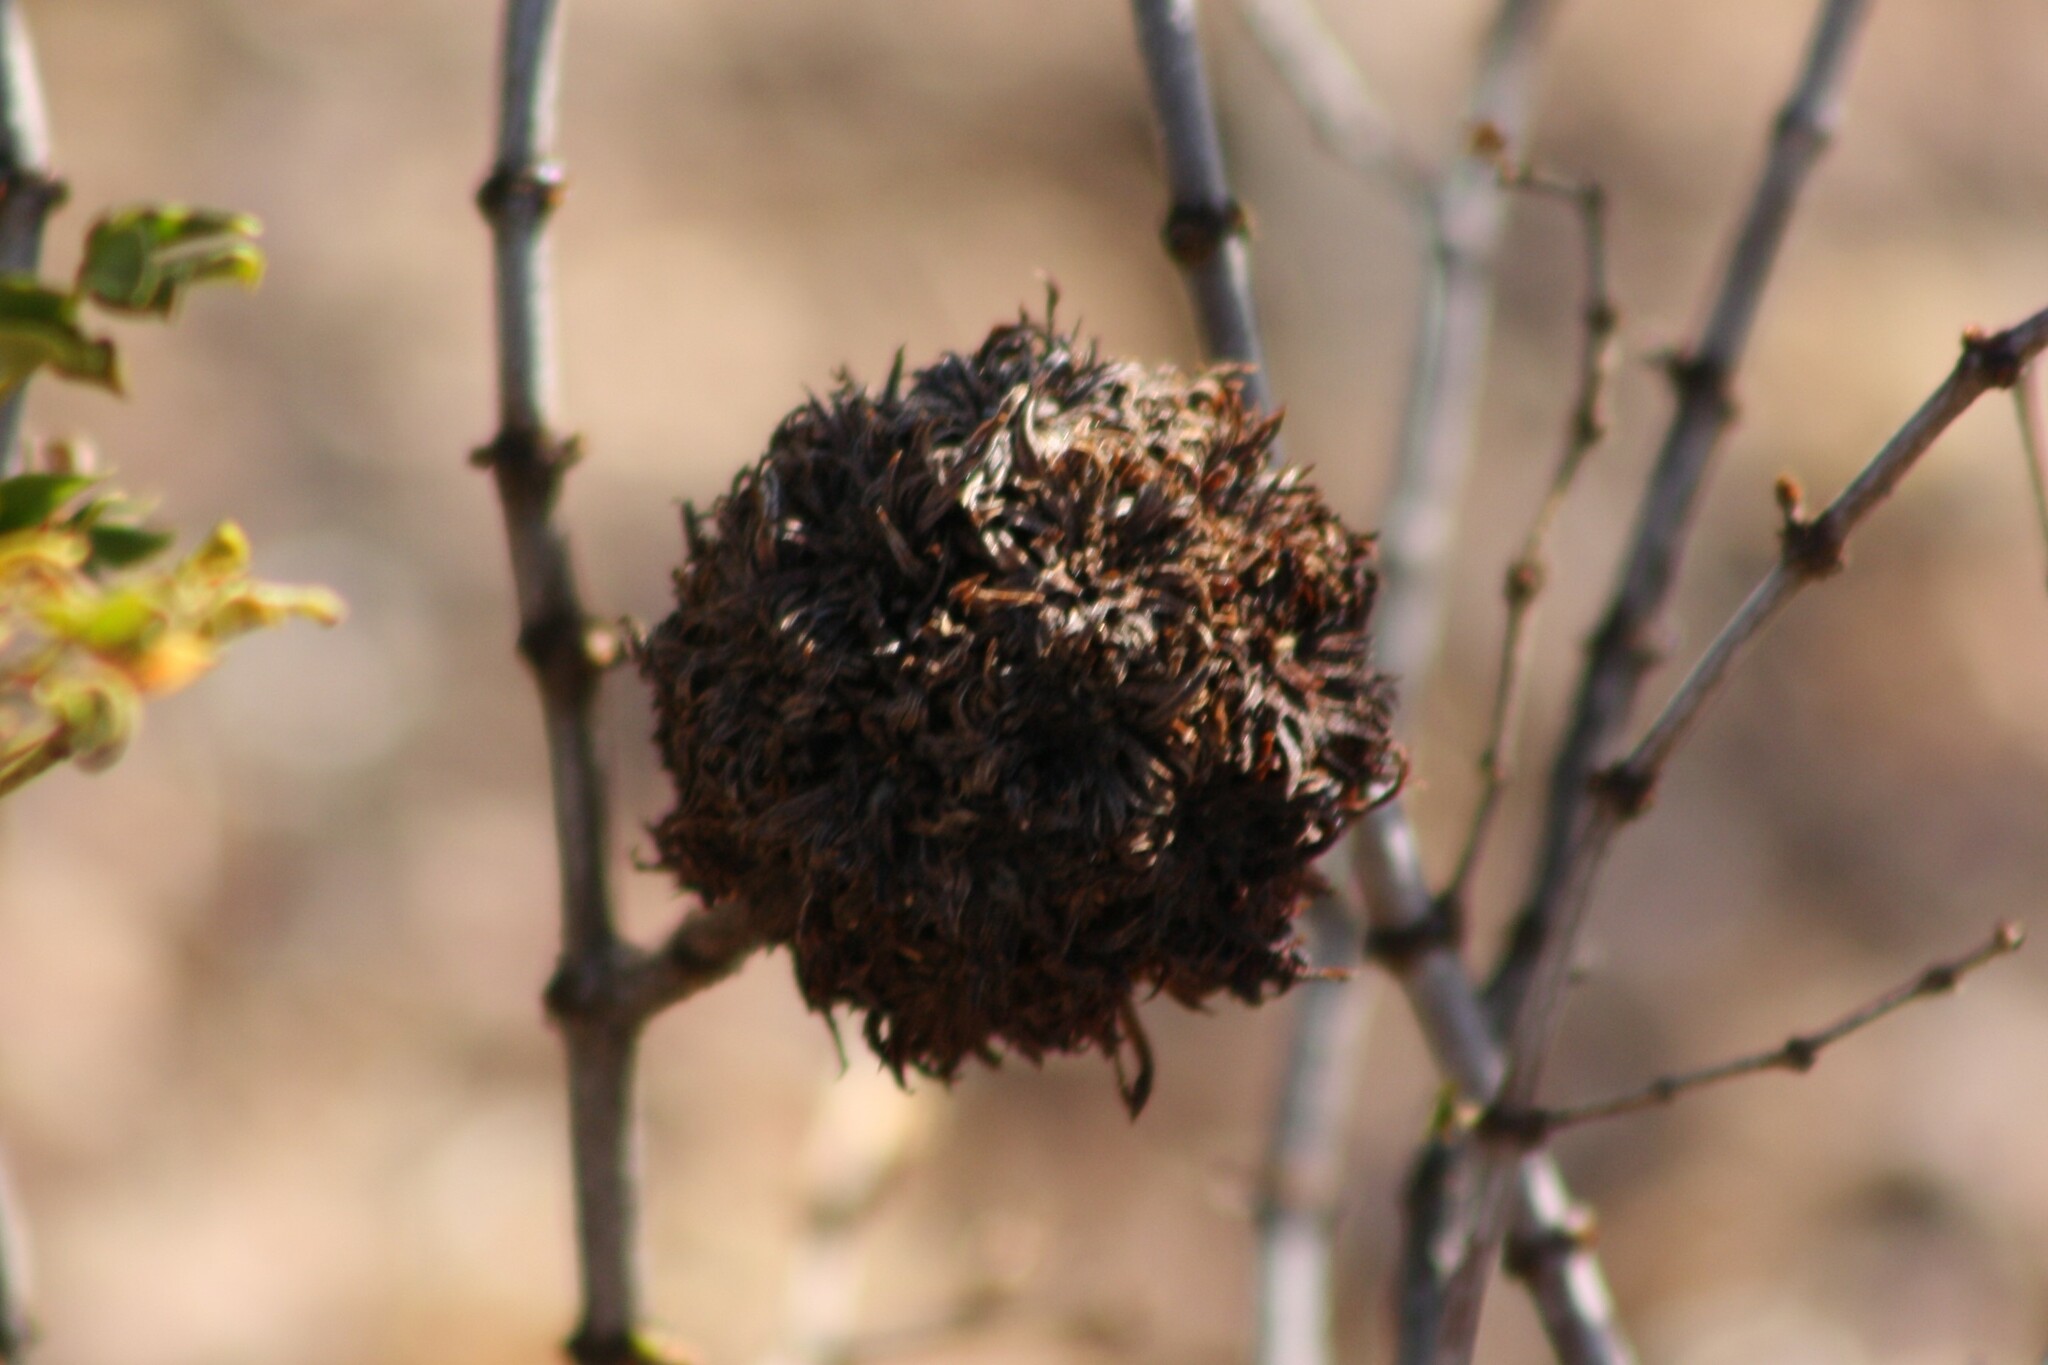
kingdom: Animalia
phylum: Arthropoda
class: Insecta
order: Diptera
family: Cecidomyiidae
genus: Asphondylia
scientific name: Asphondylia auripila
